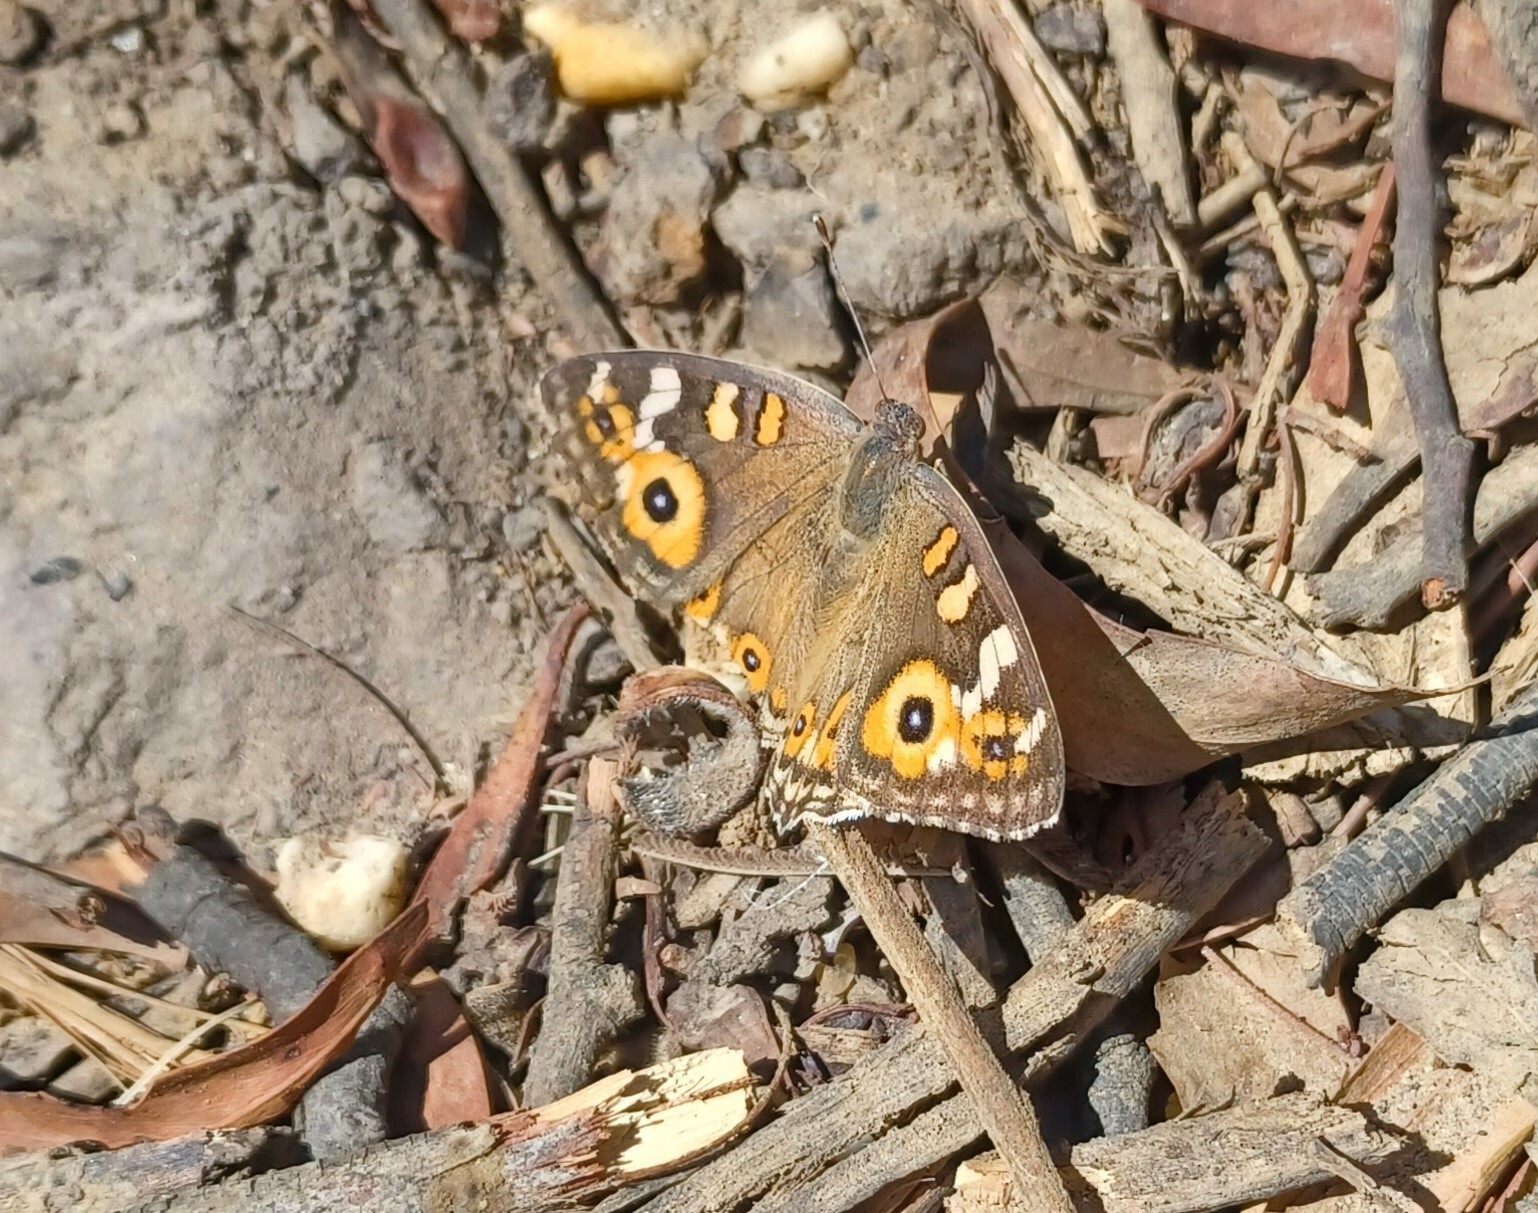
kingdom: Animalia
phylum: Arthropoda
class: Insecta
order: Lepidoptera
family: Nymphalidae
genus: Junonia
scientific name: Junonia villida
